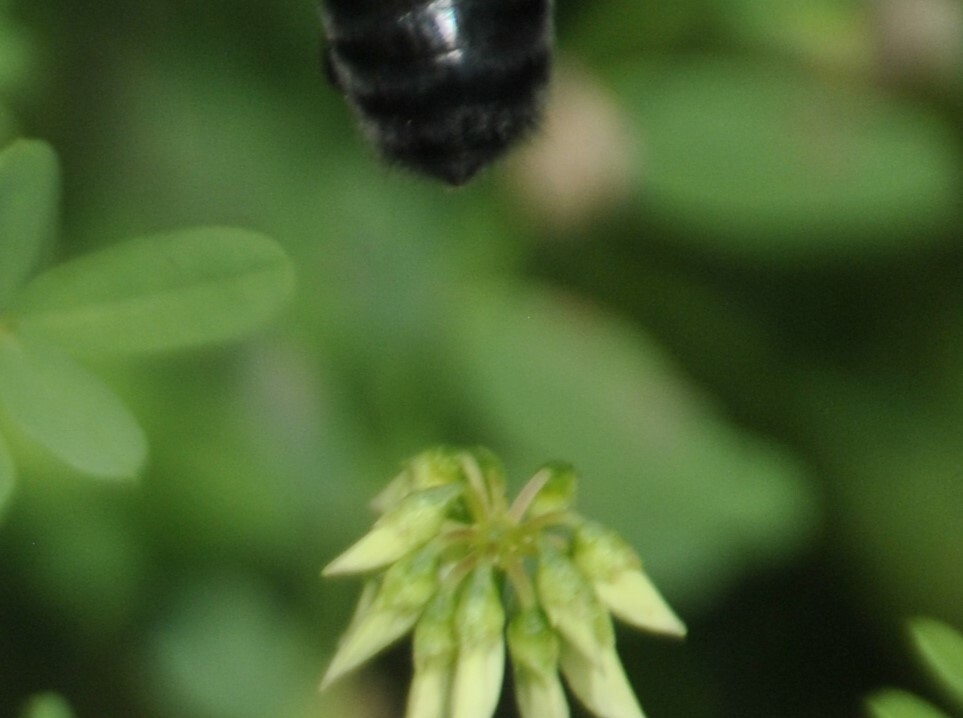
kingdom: Animalia
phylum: Arthropoda
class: Insecta
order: Hymenoptera
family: Apidae
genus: Bombus
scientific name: Bombus impatiens
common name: Common eastern bumble bee
